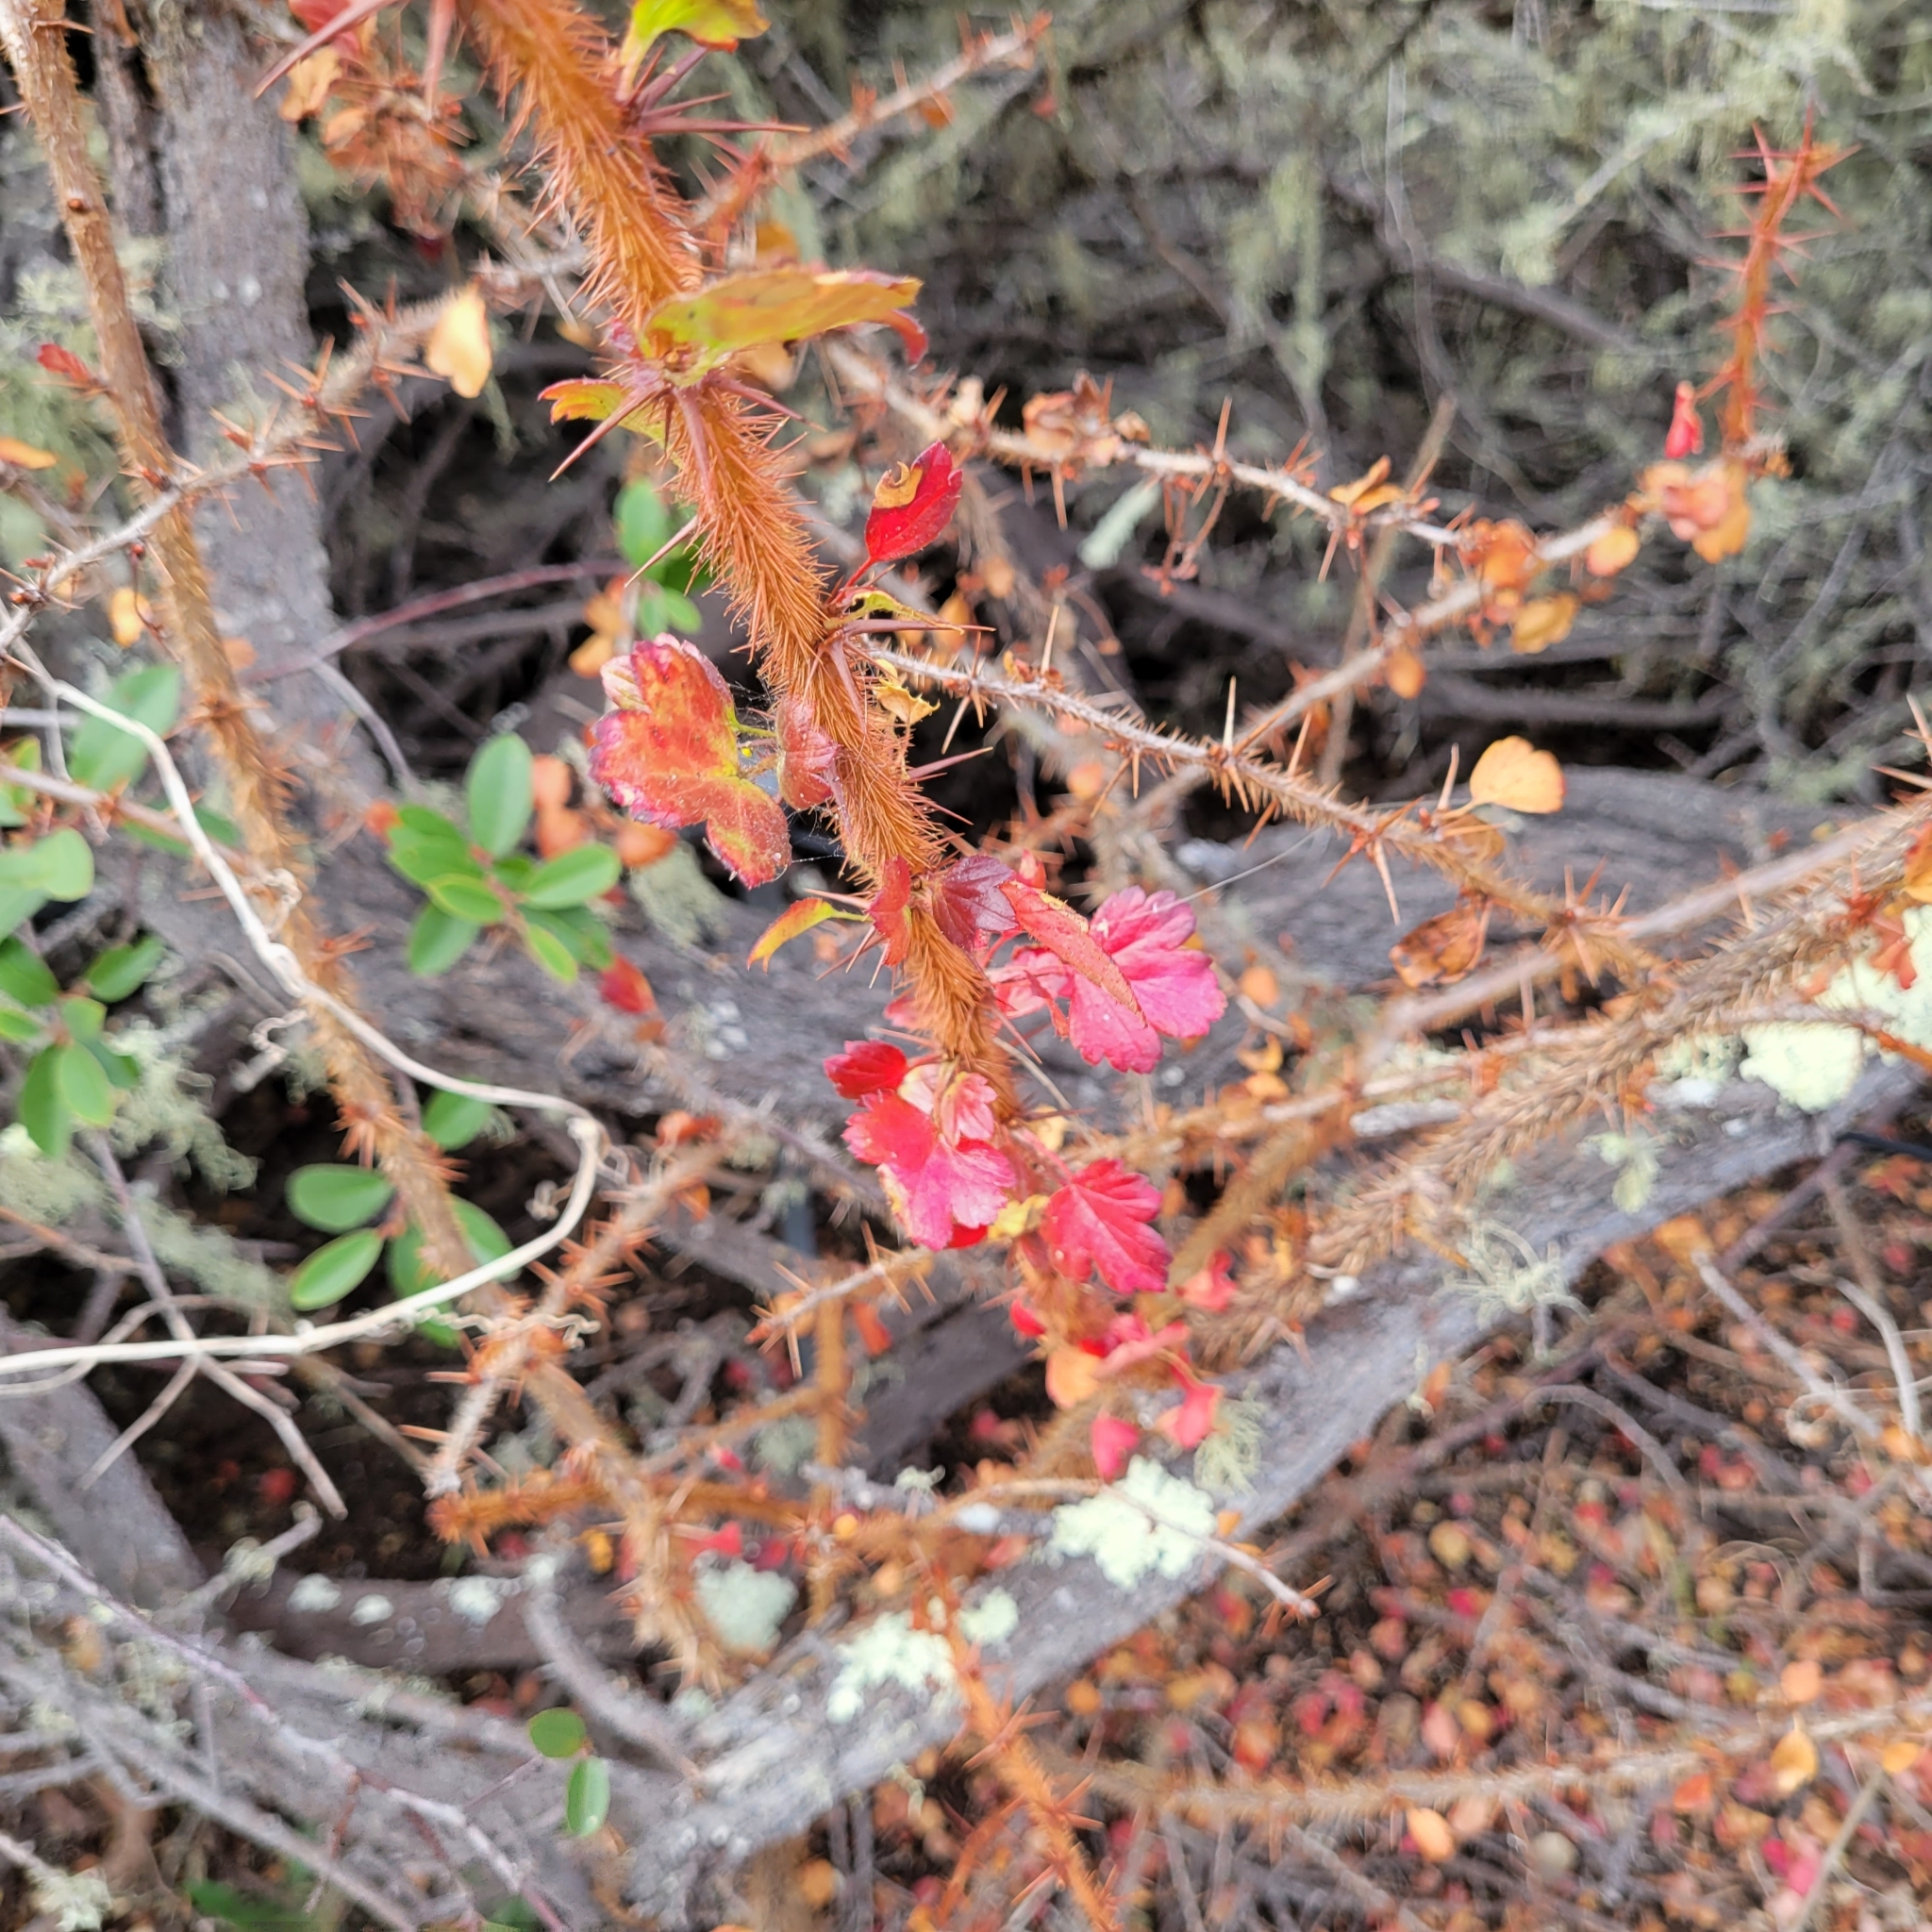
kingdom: Plantae
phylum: Tracheophyta
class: Magnoliopsida
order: Saxifragales
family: Grossulariaceae
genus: Ribes
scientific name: Ribes speciosum
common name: Fuchsia-flower gooseberry
